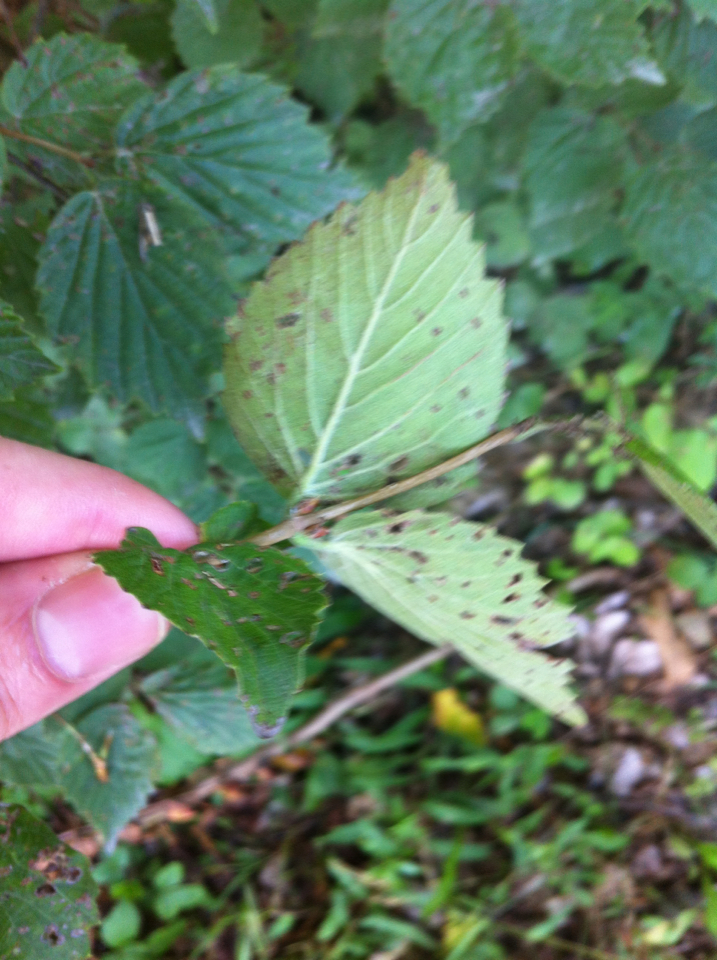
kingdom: Plantae
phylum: Tracheophyta
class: Magnoliopsida
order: Dipsacales
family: Viburnaceae
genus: Viburnum
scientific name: Viburnum rafinesqueanum
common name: Downy arrow-wood
